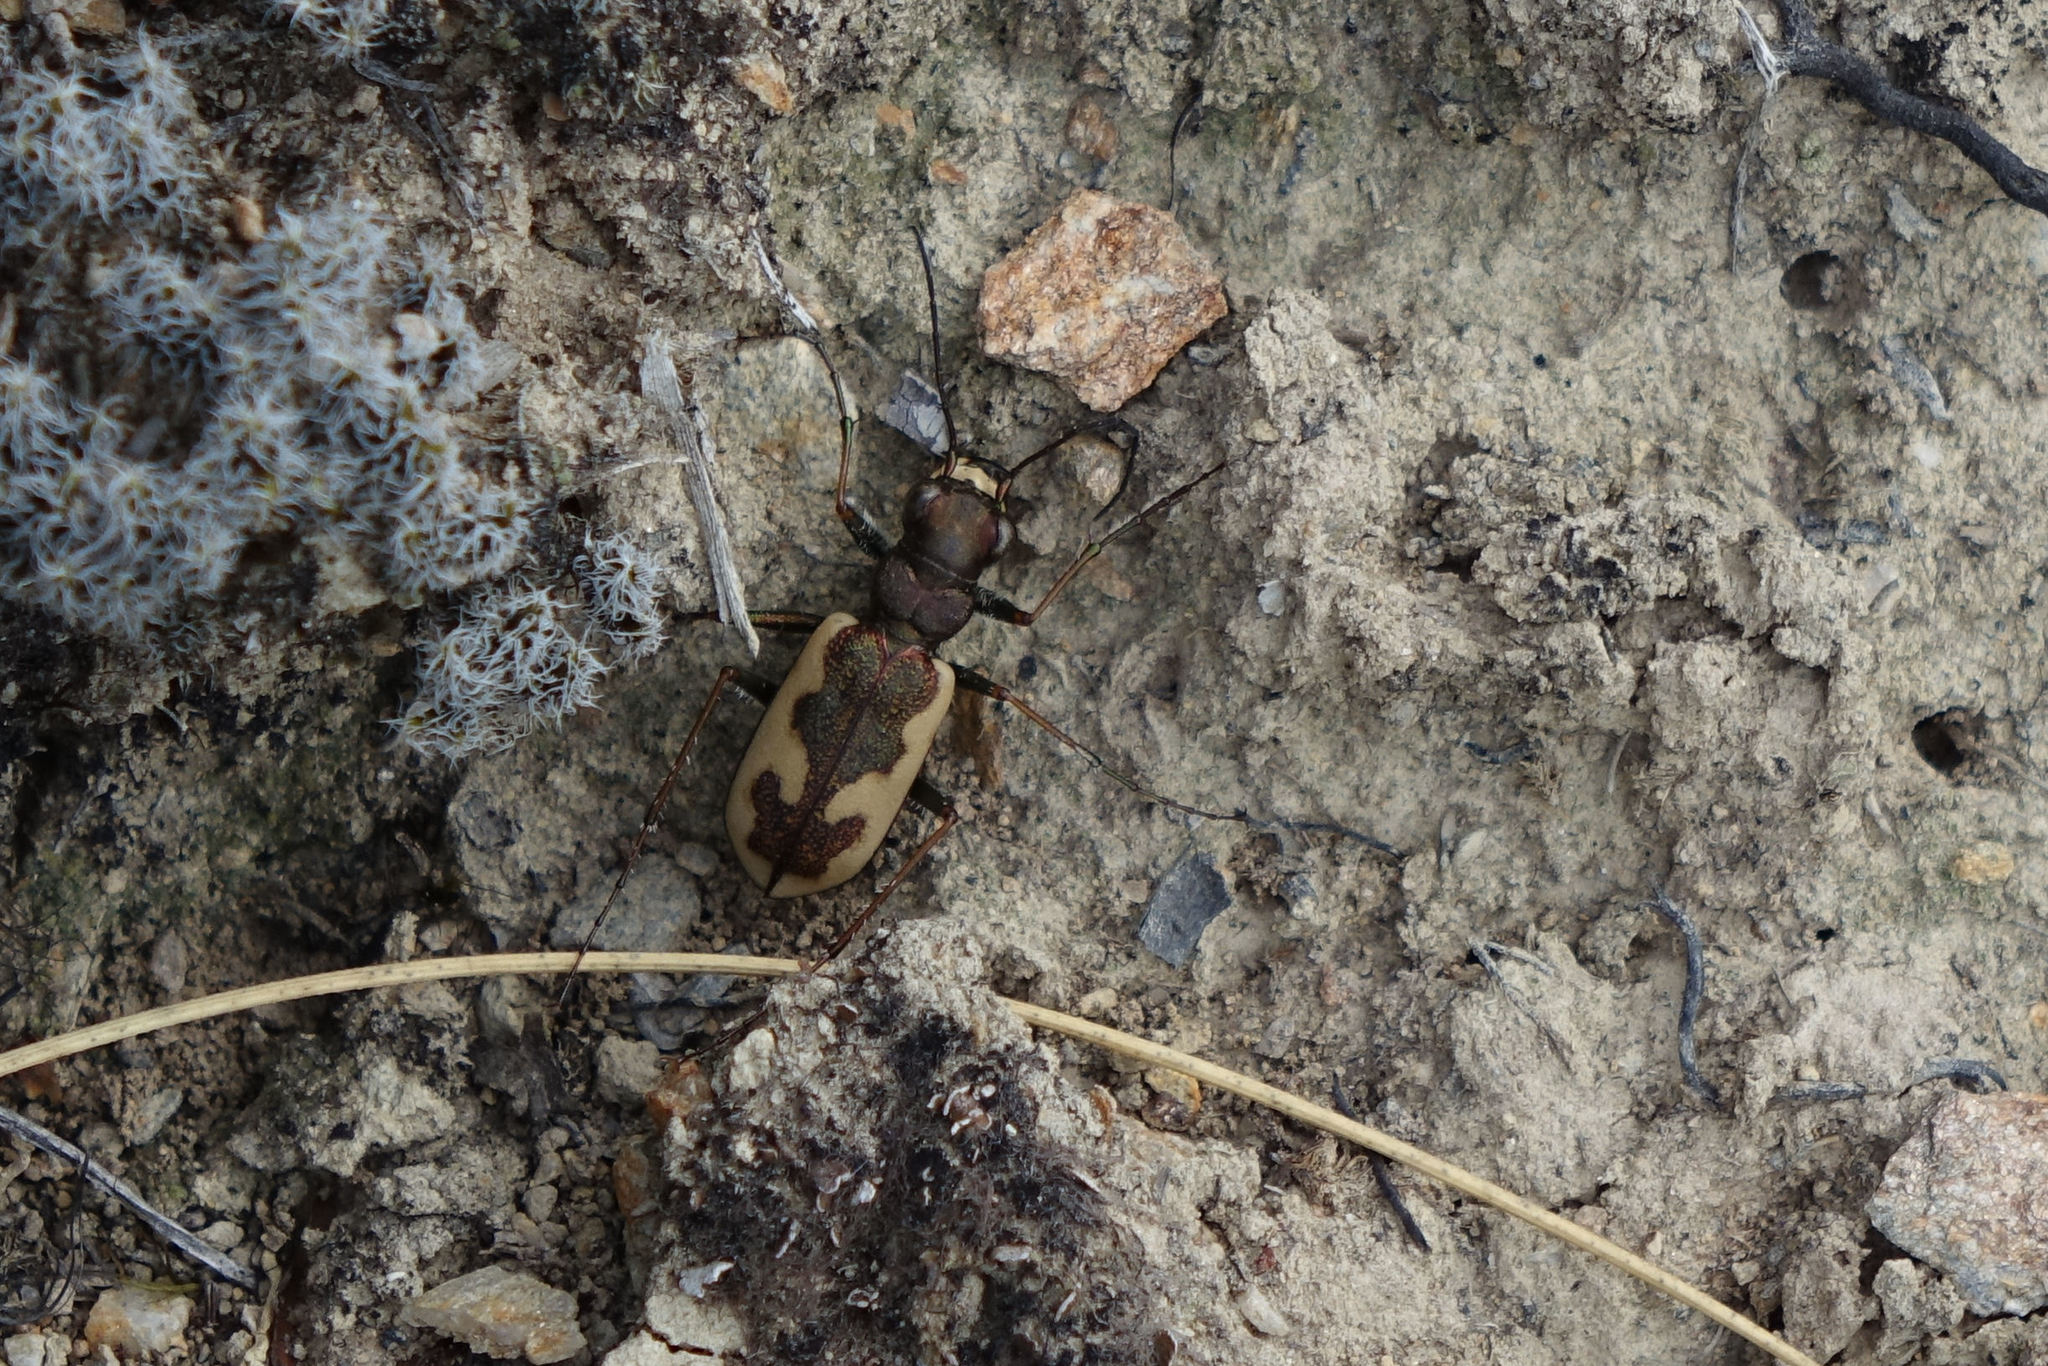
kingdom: Animalia
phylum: Arthropoda
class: Insecta
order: Coleoptera
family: Carabidae
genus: Neocicindela
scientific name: Neocicindela latecincta
